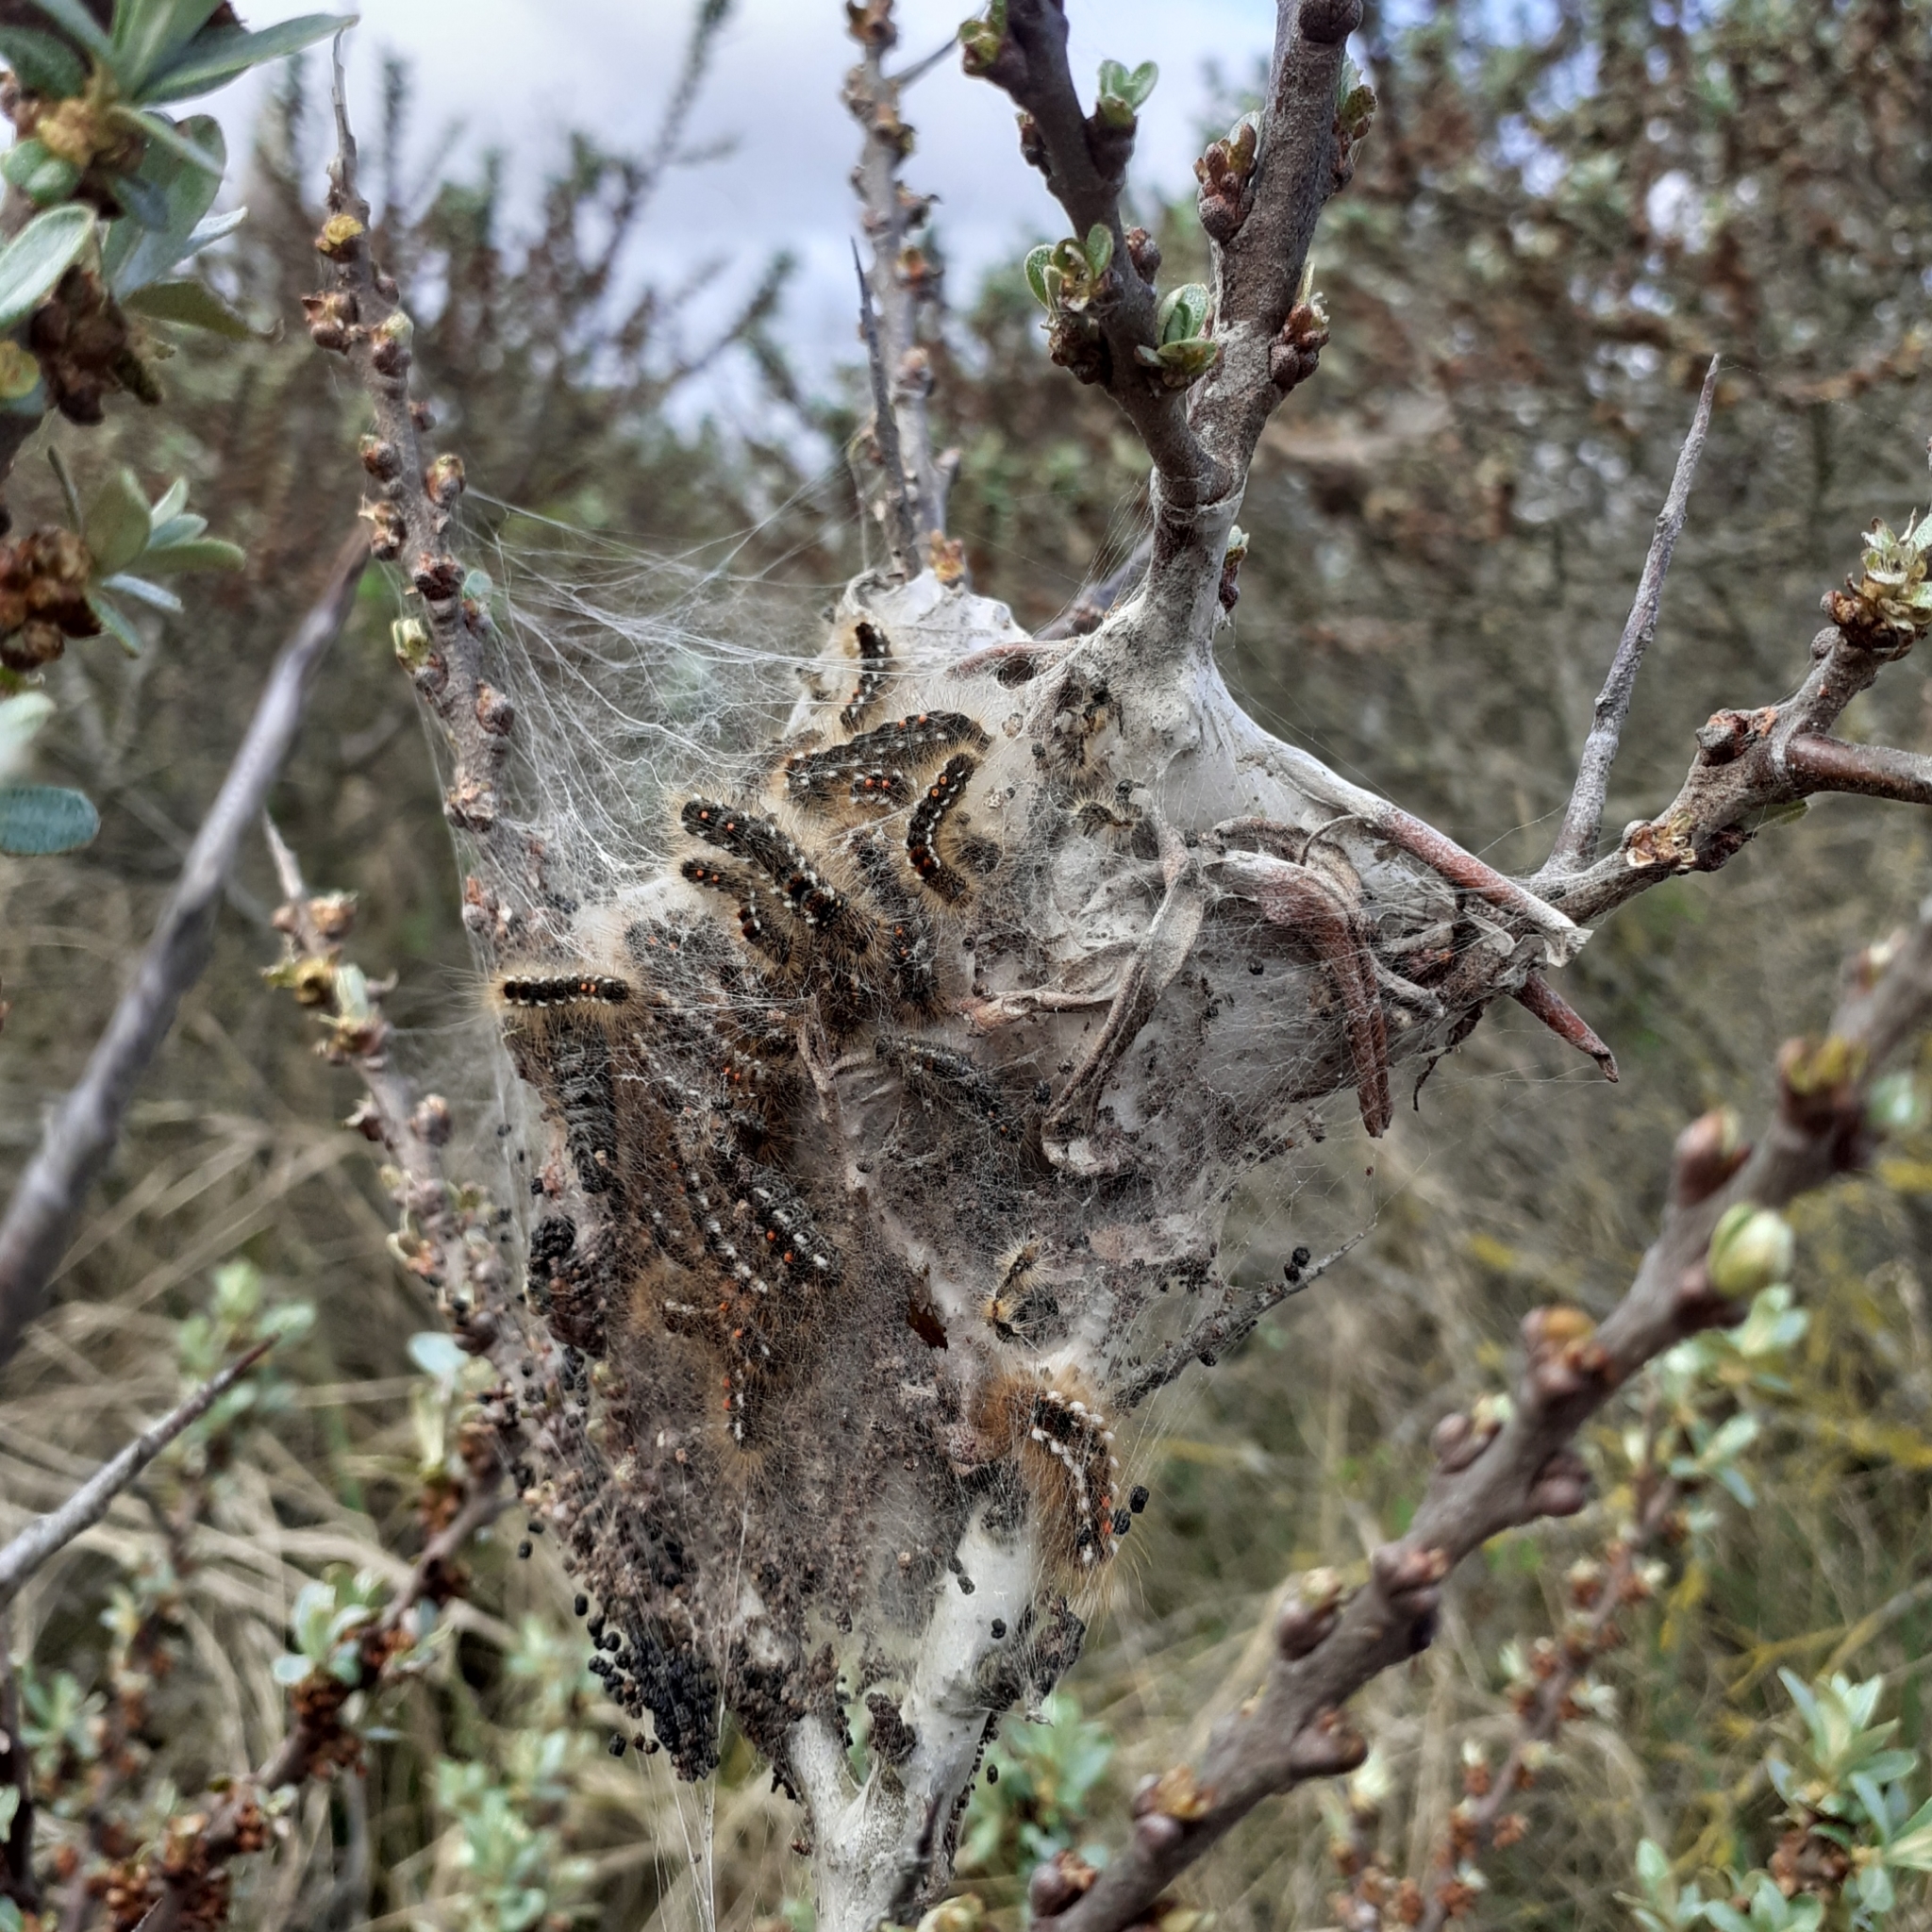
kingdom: Animalia
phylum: Arthropoda
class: Insecta
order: Lepidoptera
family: Erebidae
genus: Euproctis
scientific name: Euproctis chrysorrhoea
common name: Brown-tail
